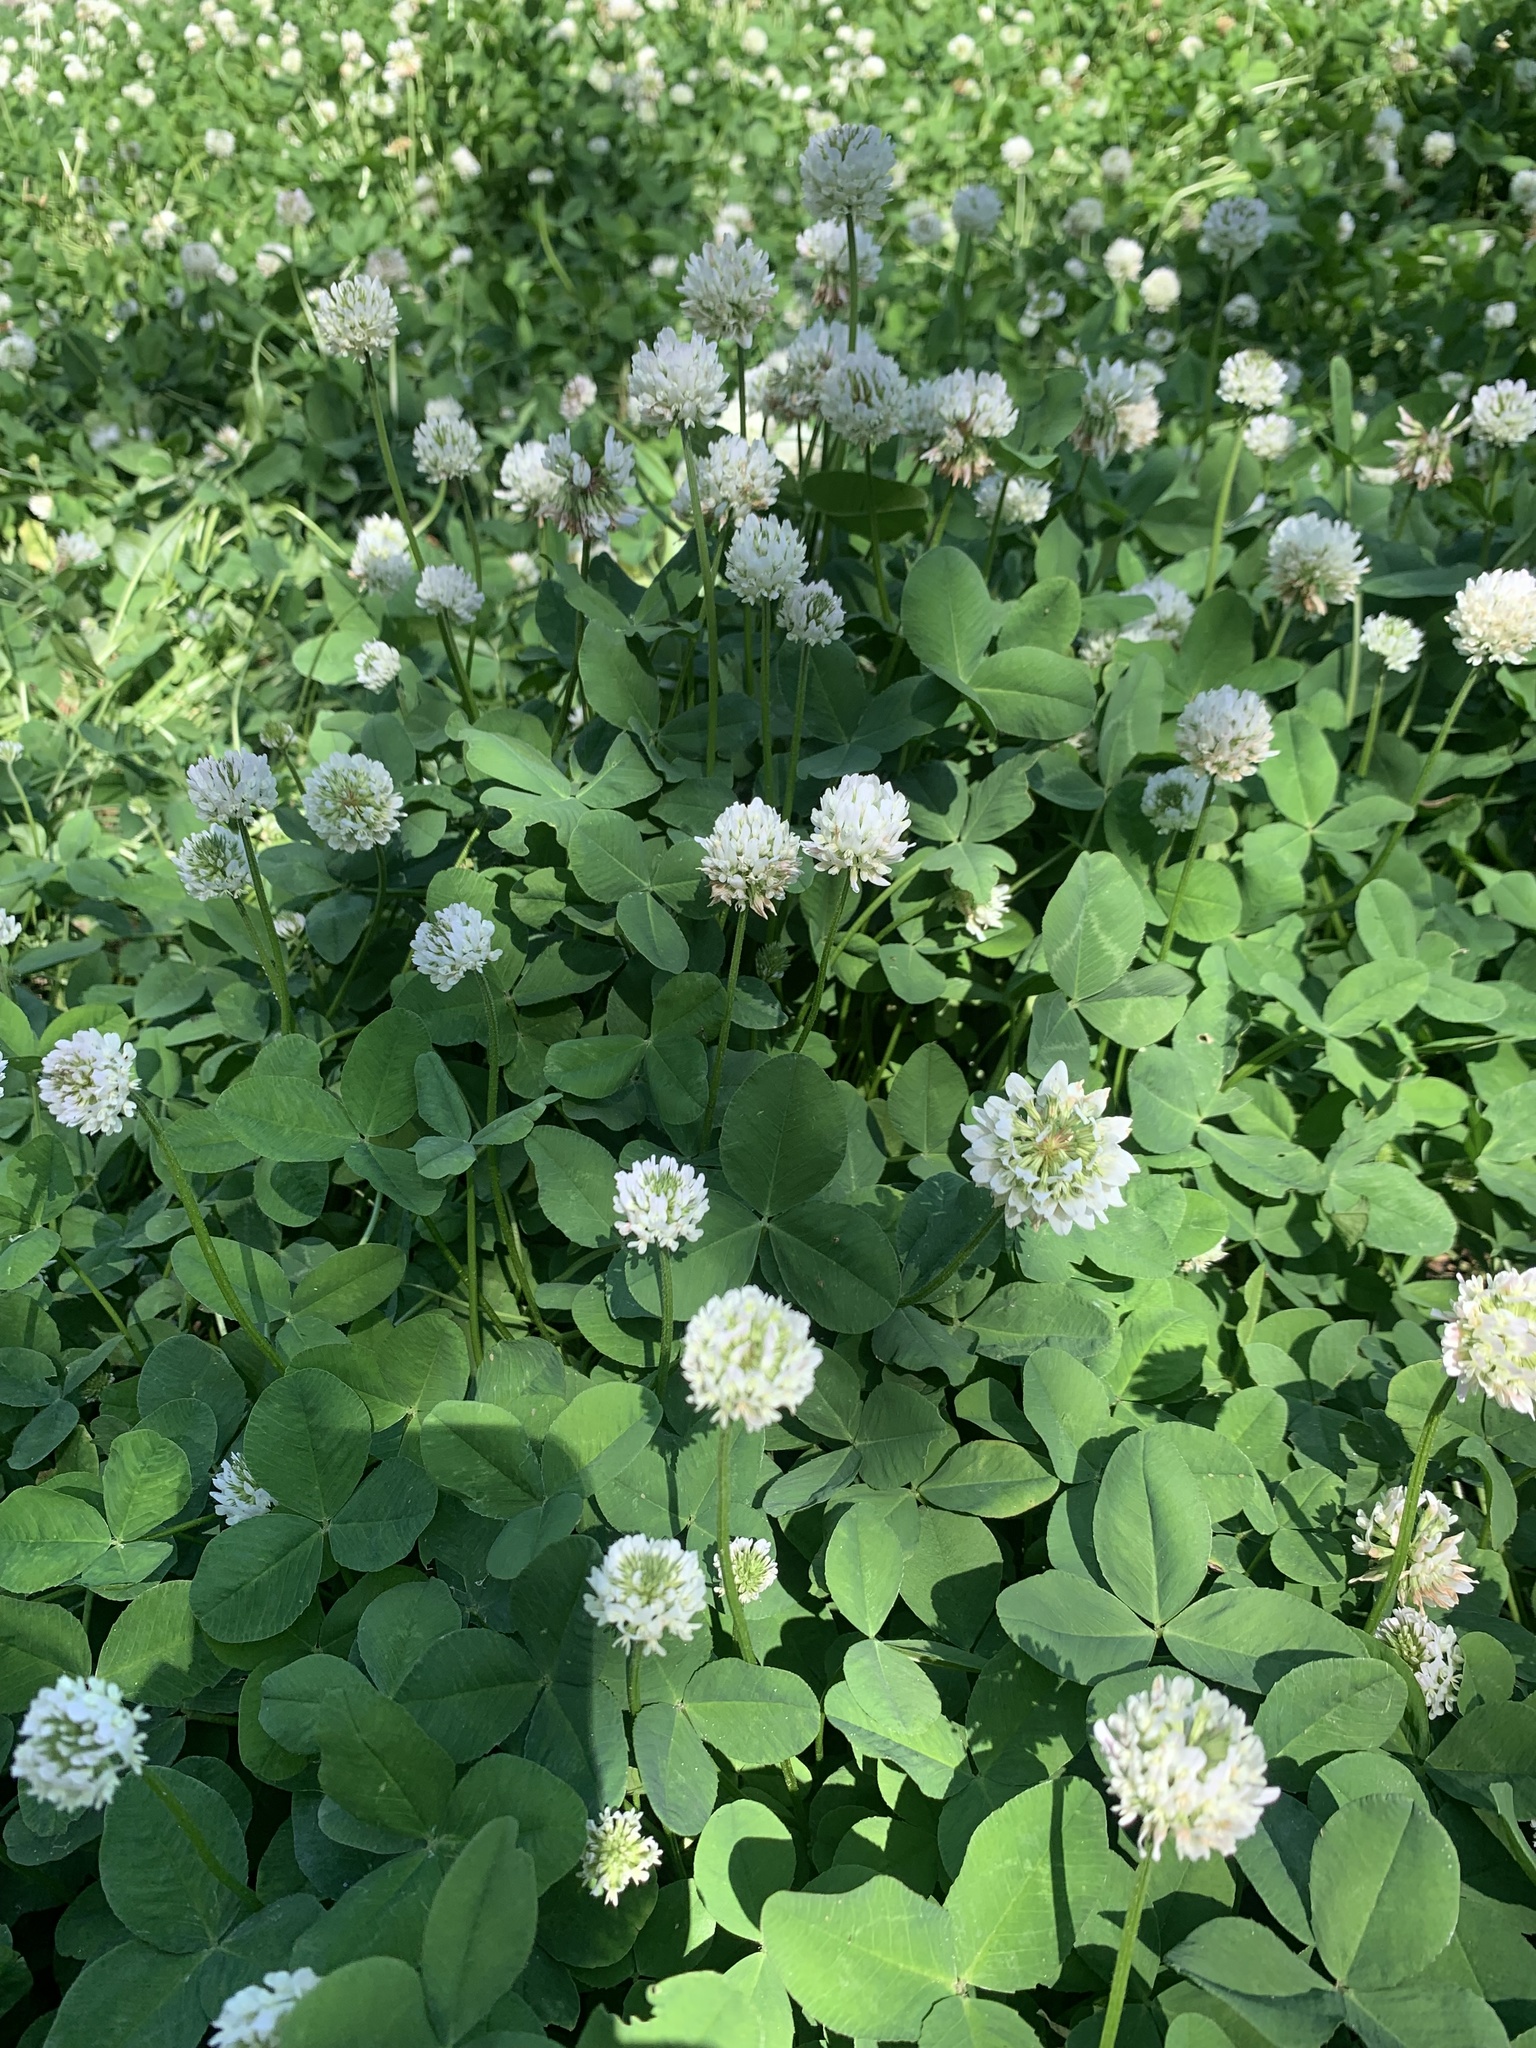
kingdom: Plantae
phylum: Tracheophyta
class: Magnoliopsida
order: Fabales
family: Fabaceae
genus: Trifolium
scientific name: Trifolium repens
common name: White clover
